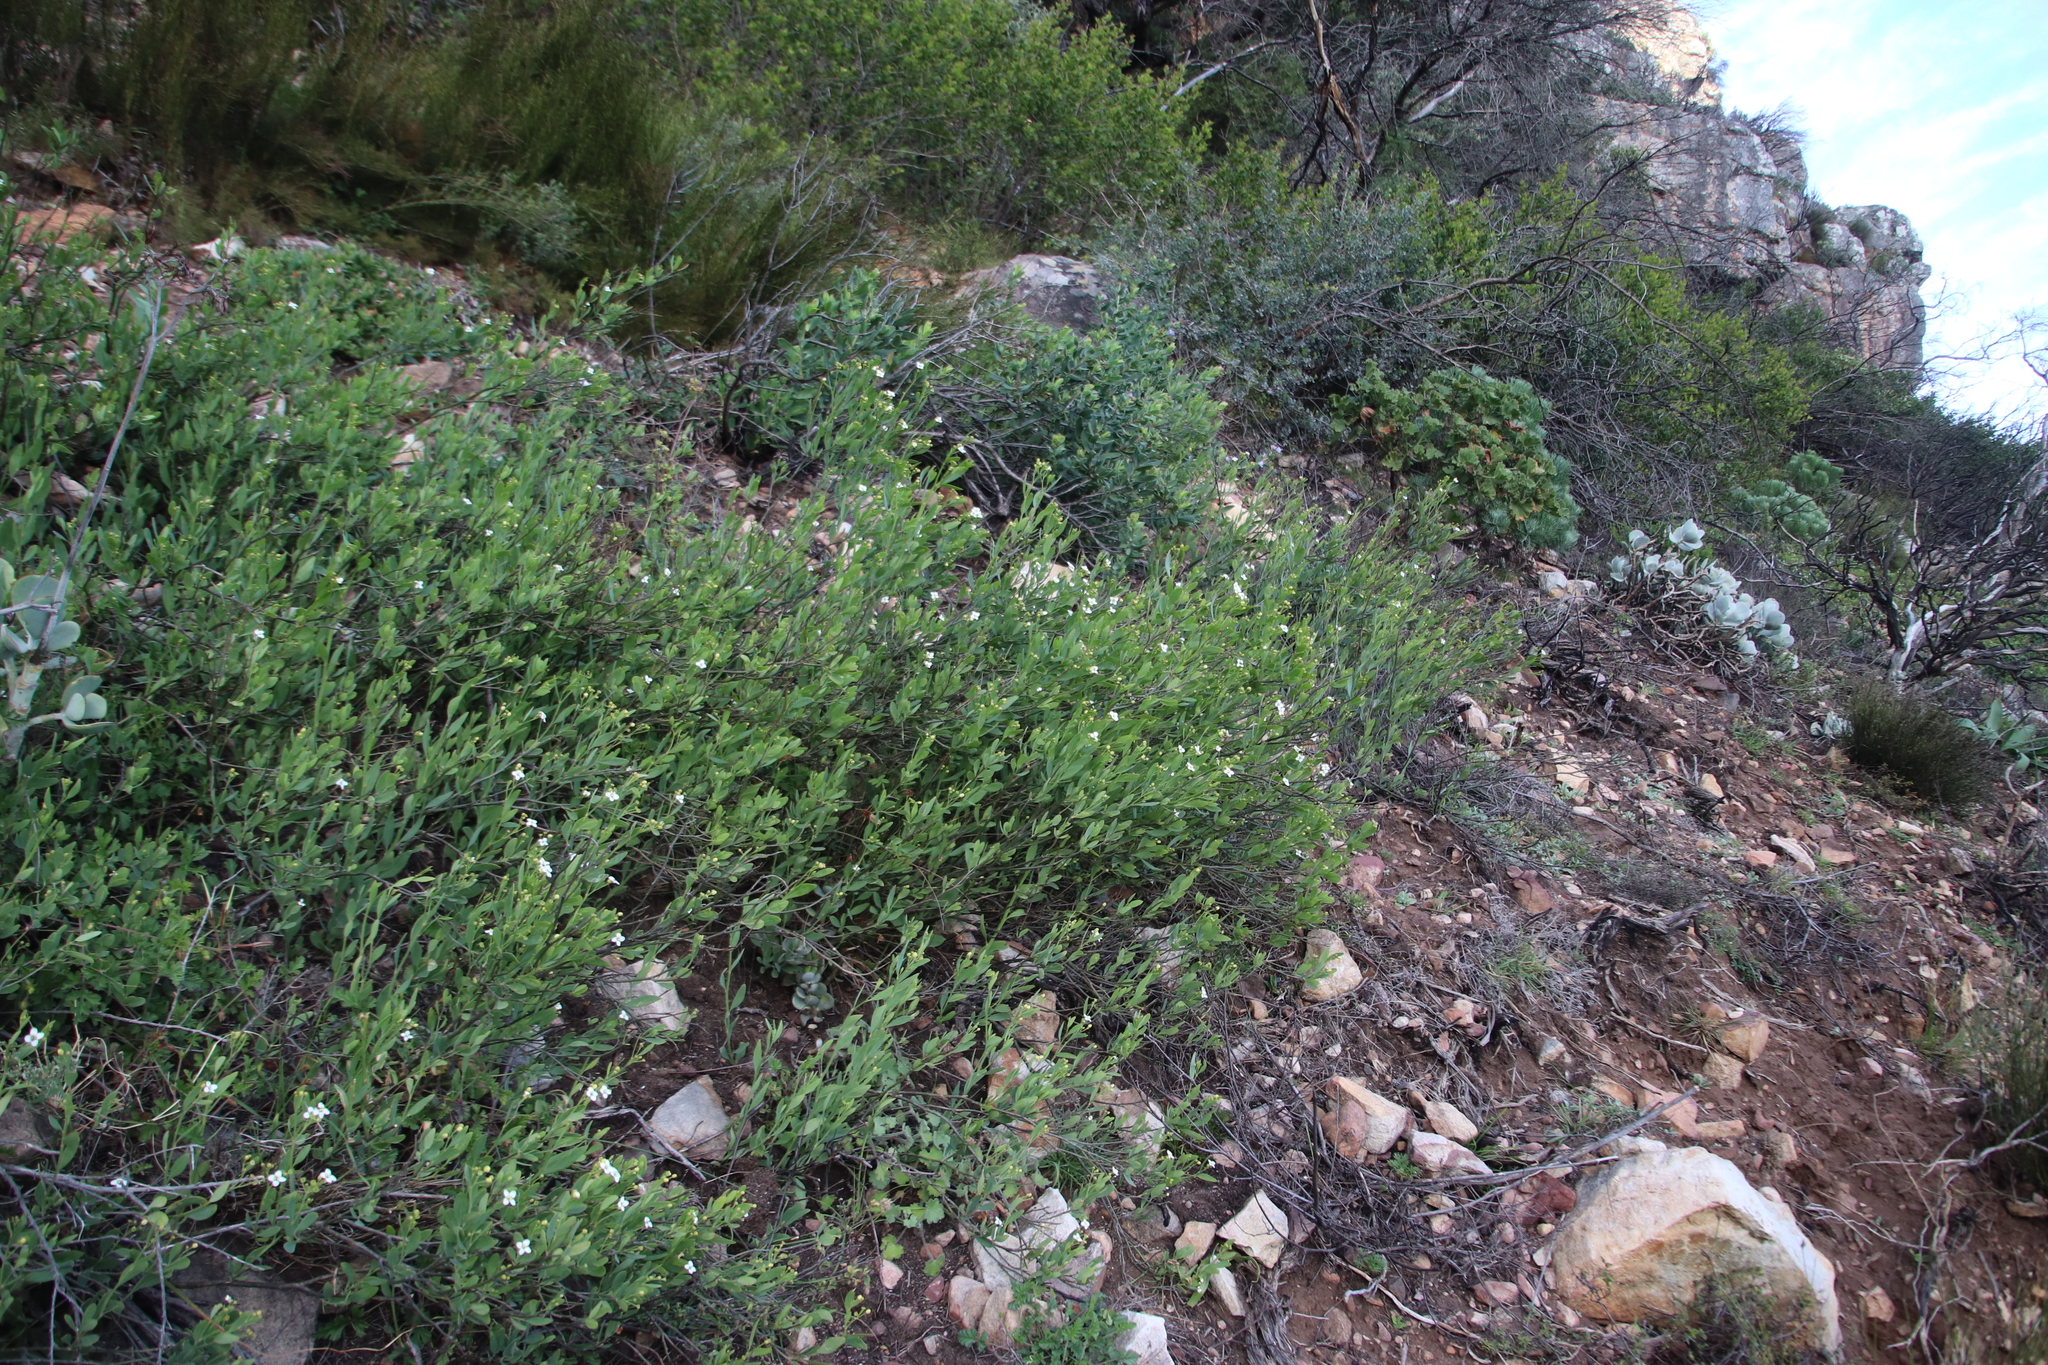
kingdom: Plantae
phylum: Tracheophyta
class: Magnoliopsida
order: Solanales
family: Montiniaceae
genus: Montinia
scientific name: Montinia caryophyllacea
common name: Wild clove-bush
